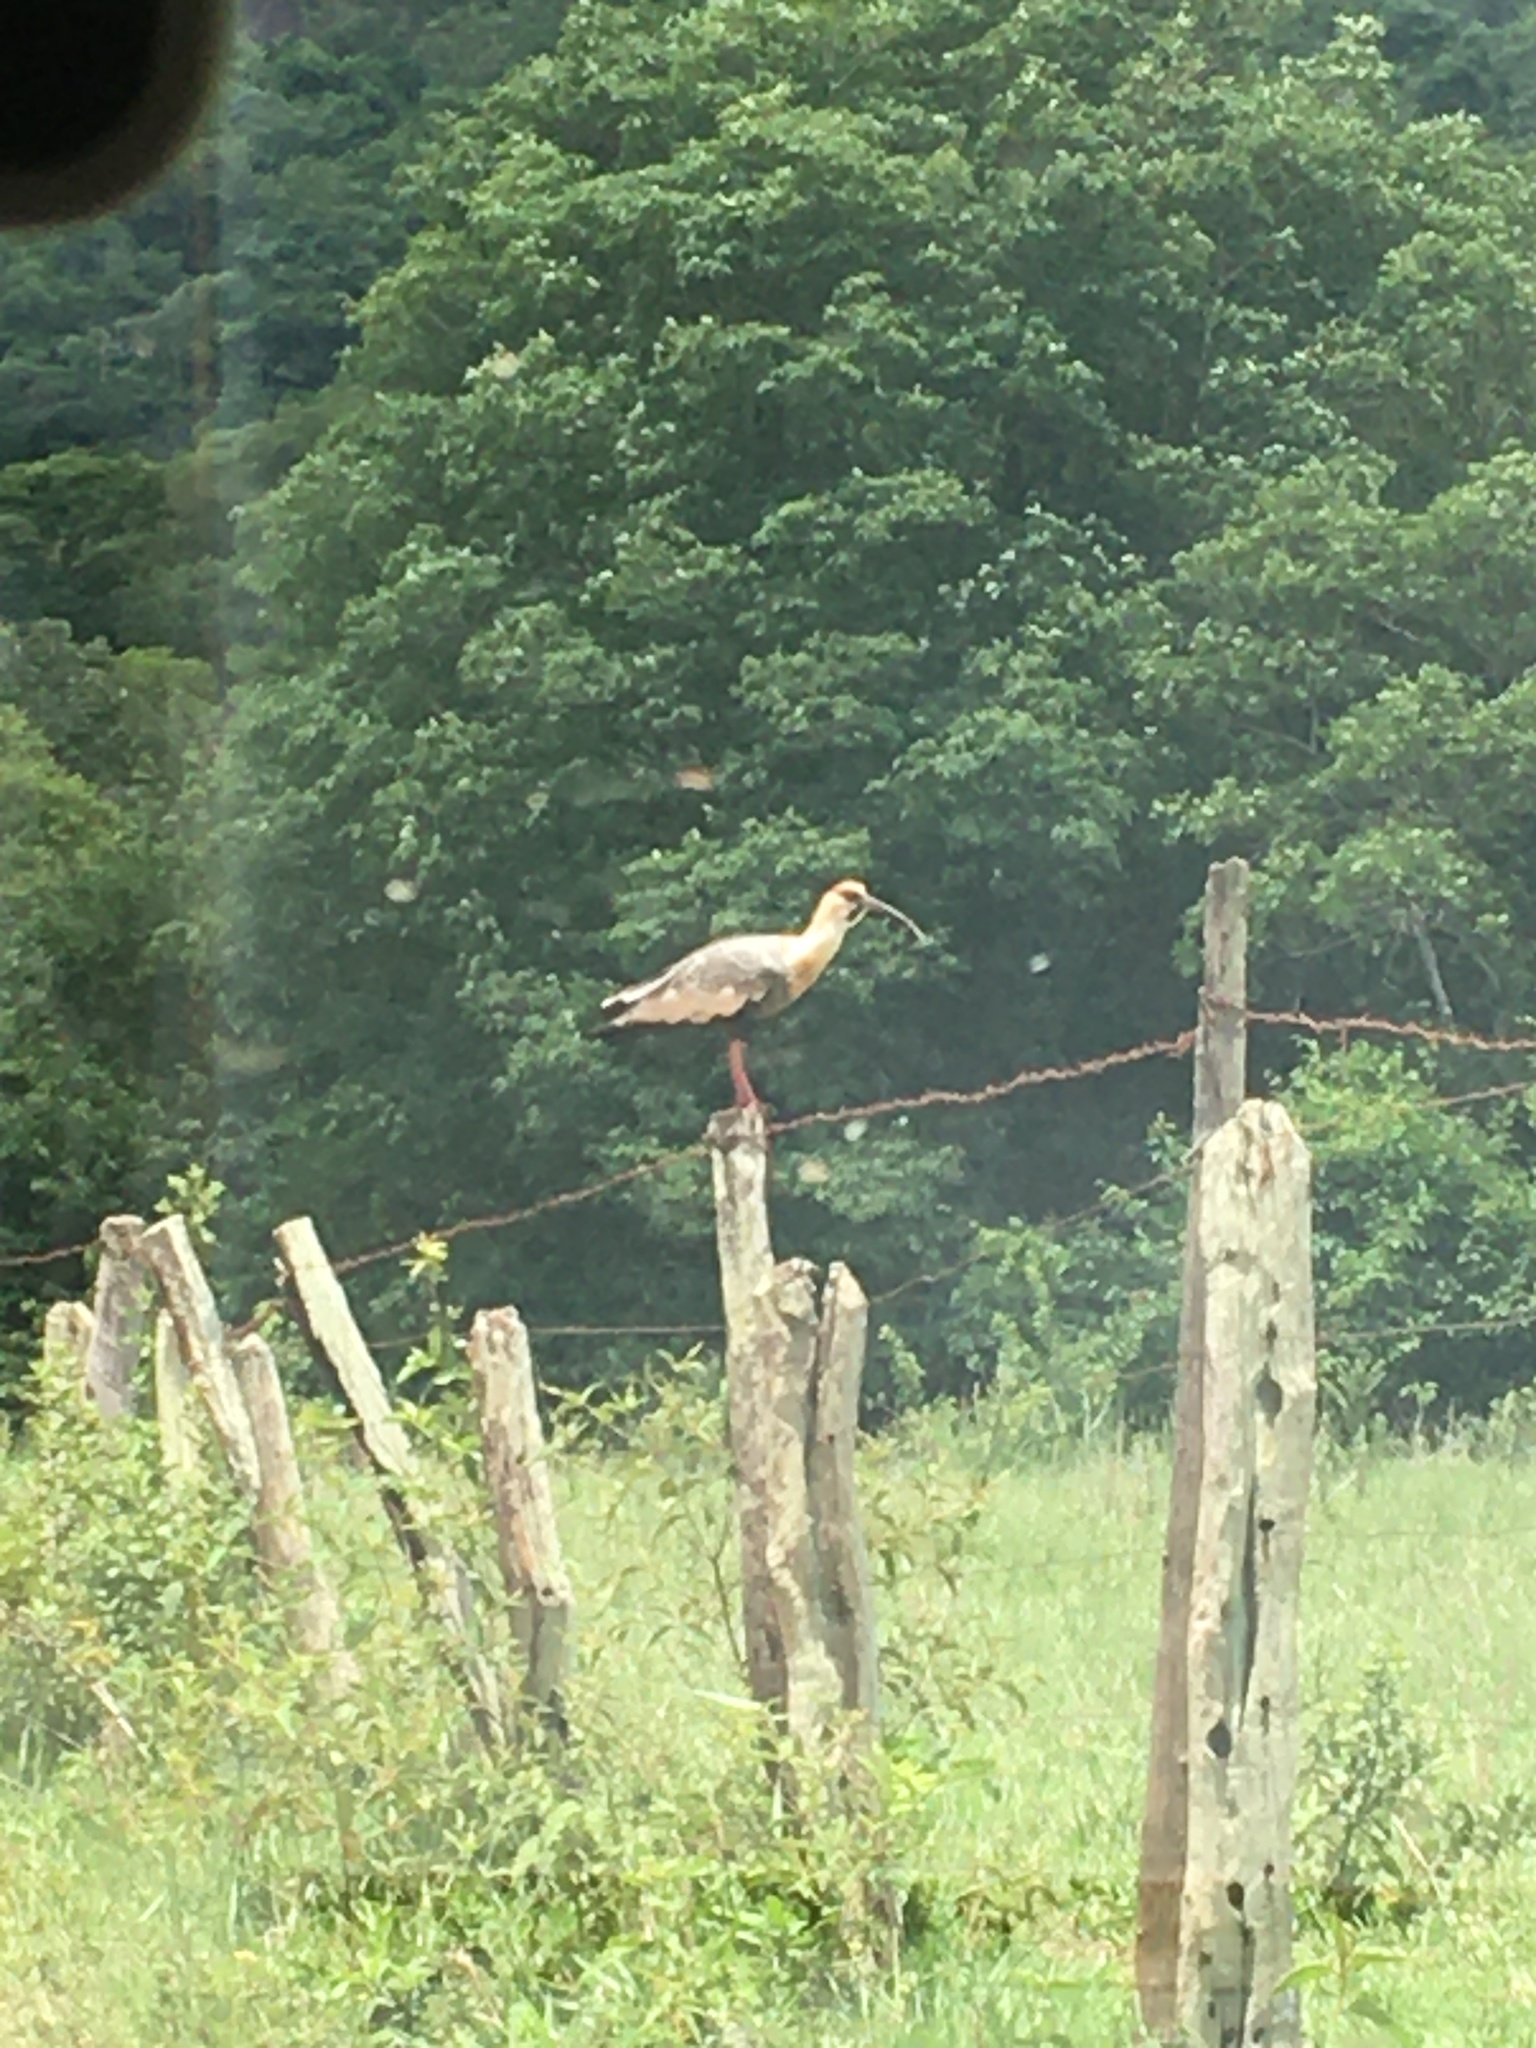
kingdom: Animalia
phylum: Chordata
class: Aves
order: Pelecaniformes
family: Threskiornithidae
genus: Theristicus
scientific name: Theristicus caudatus
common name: Buff-necked ibis
